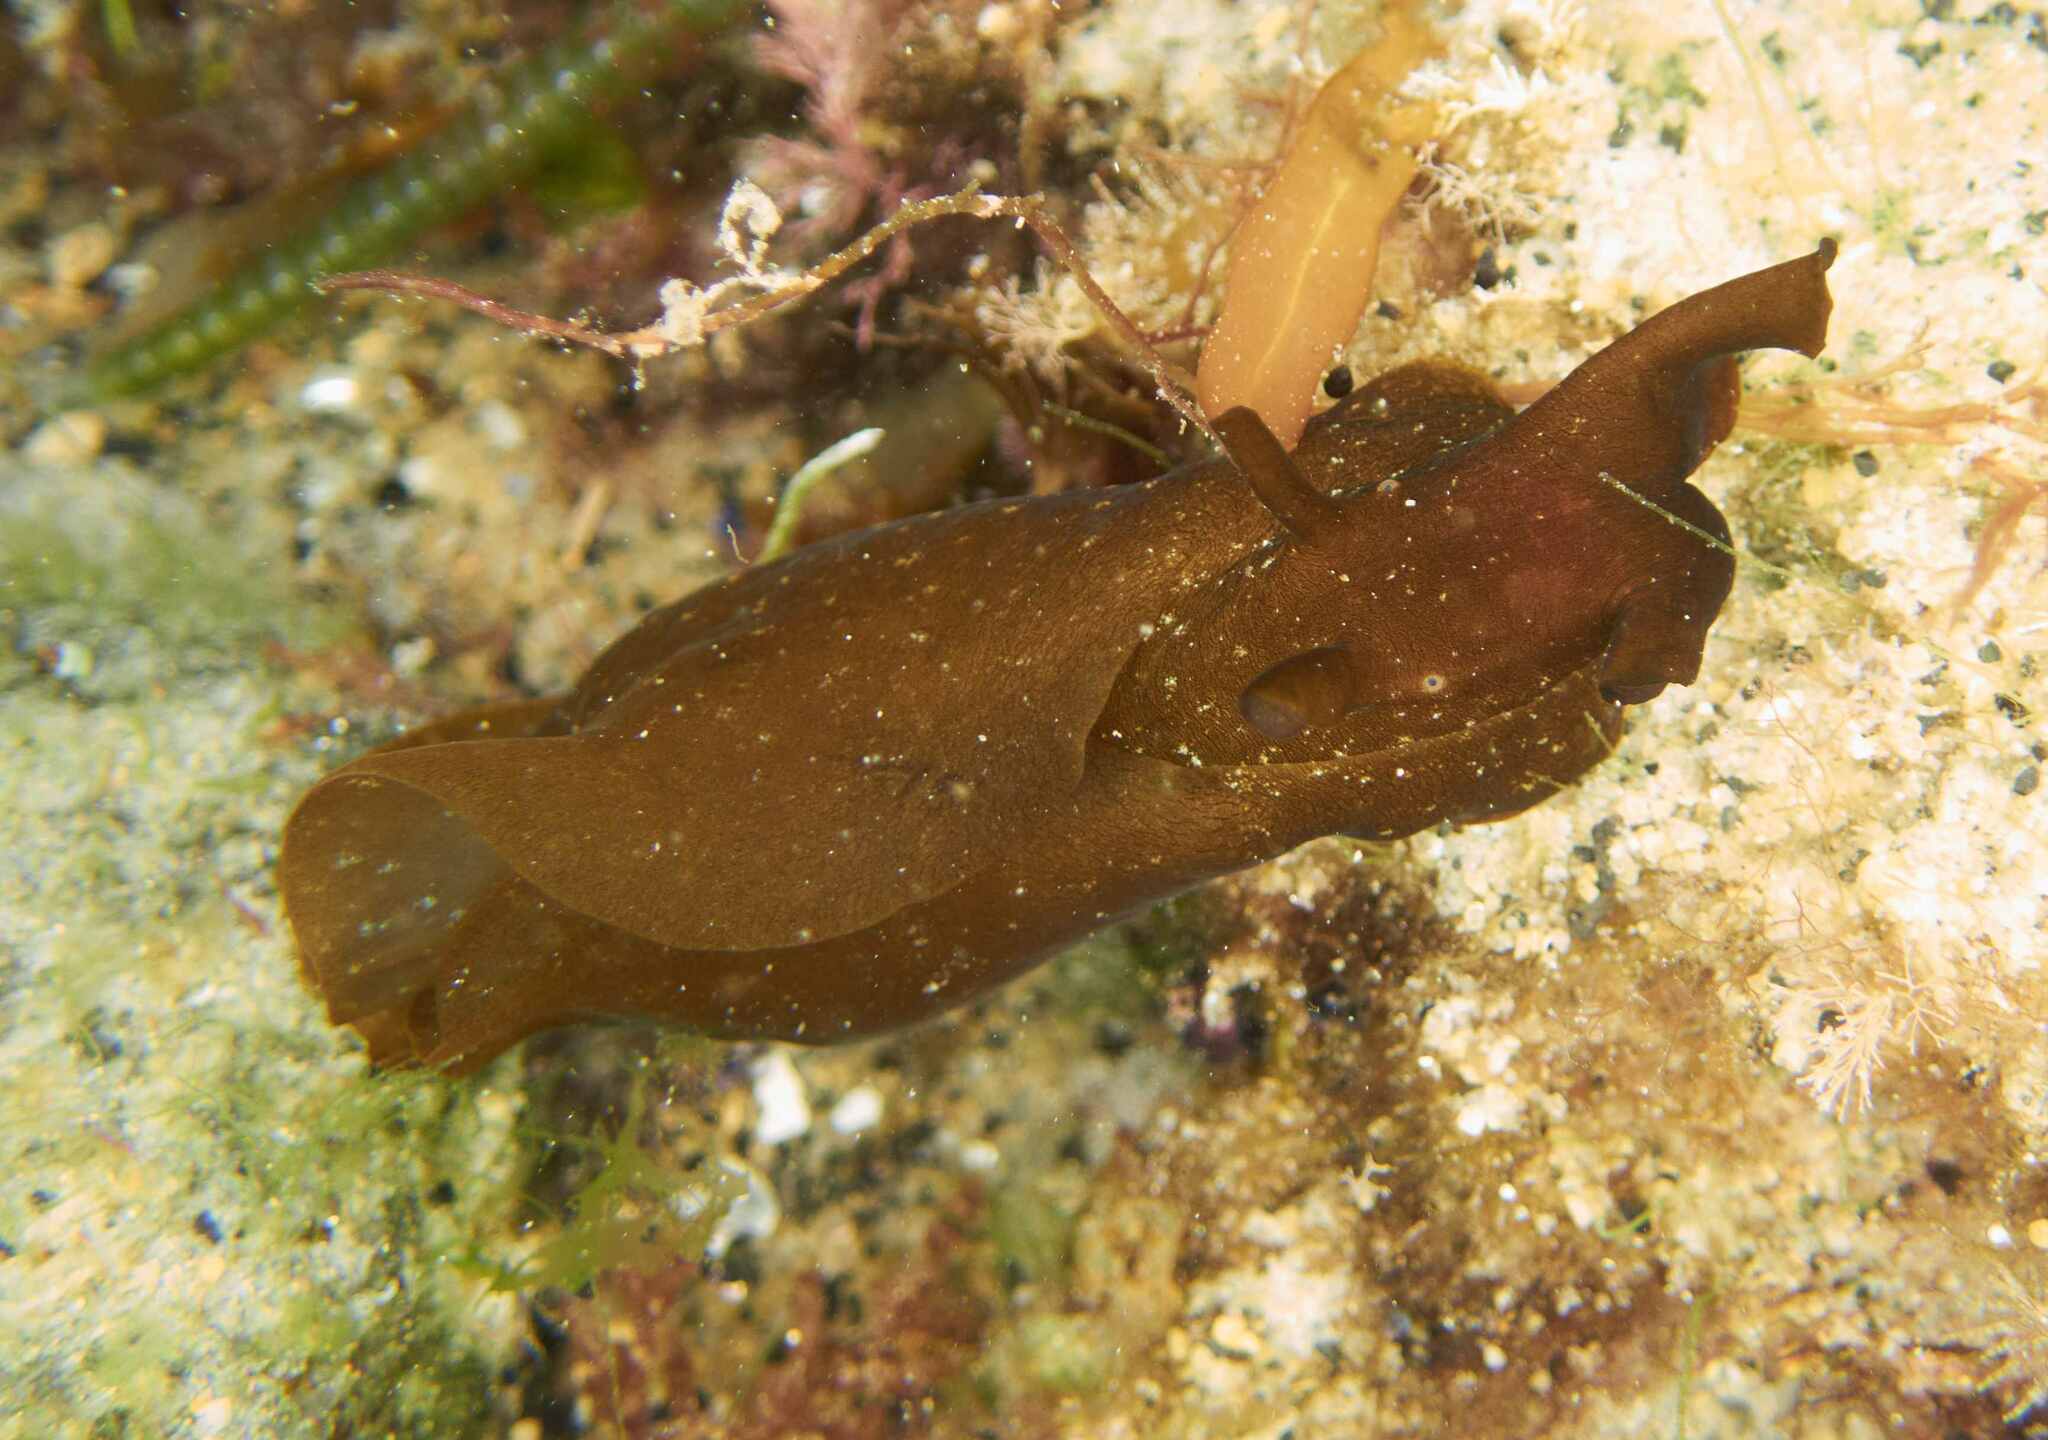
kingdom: Animalia
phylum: Mollusca
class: Gastropoda
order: Aplysiida
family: Aplysiidae
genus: Aplysia
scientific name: Aplysia juliana
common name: Walking sea hare
